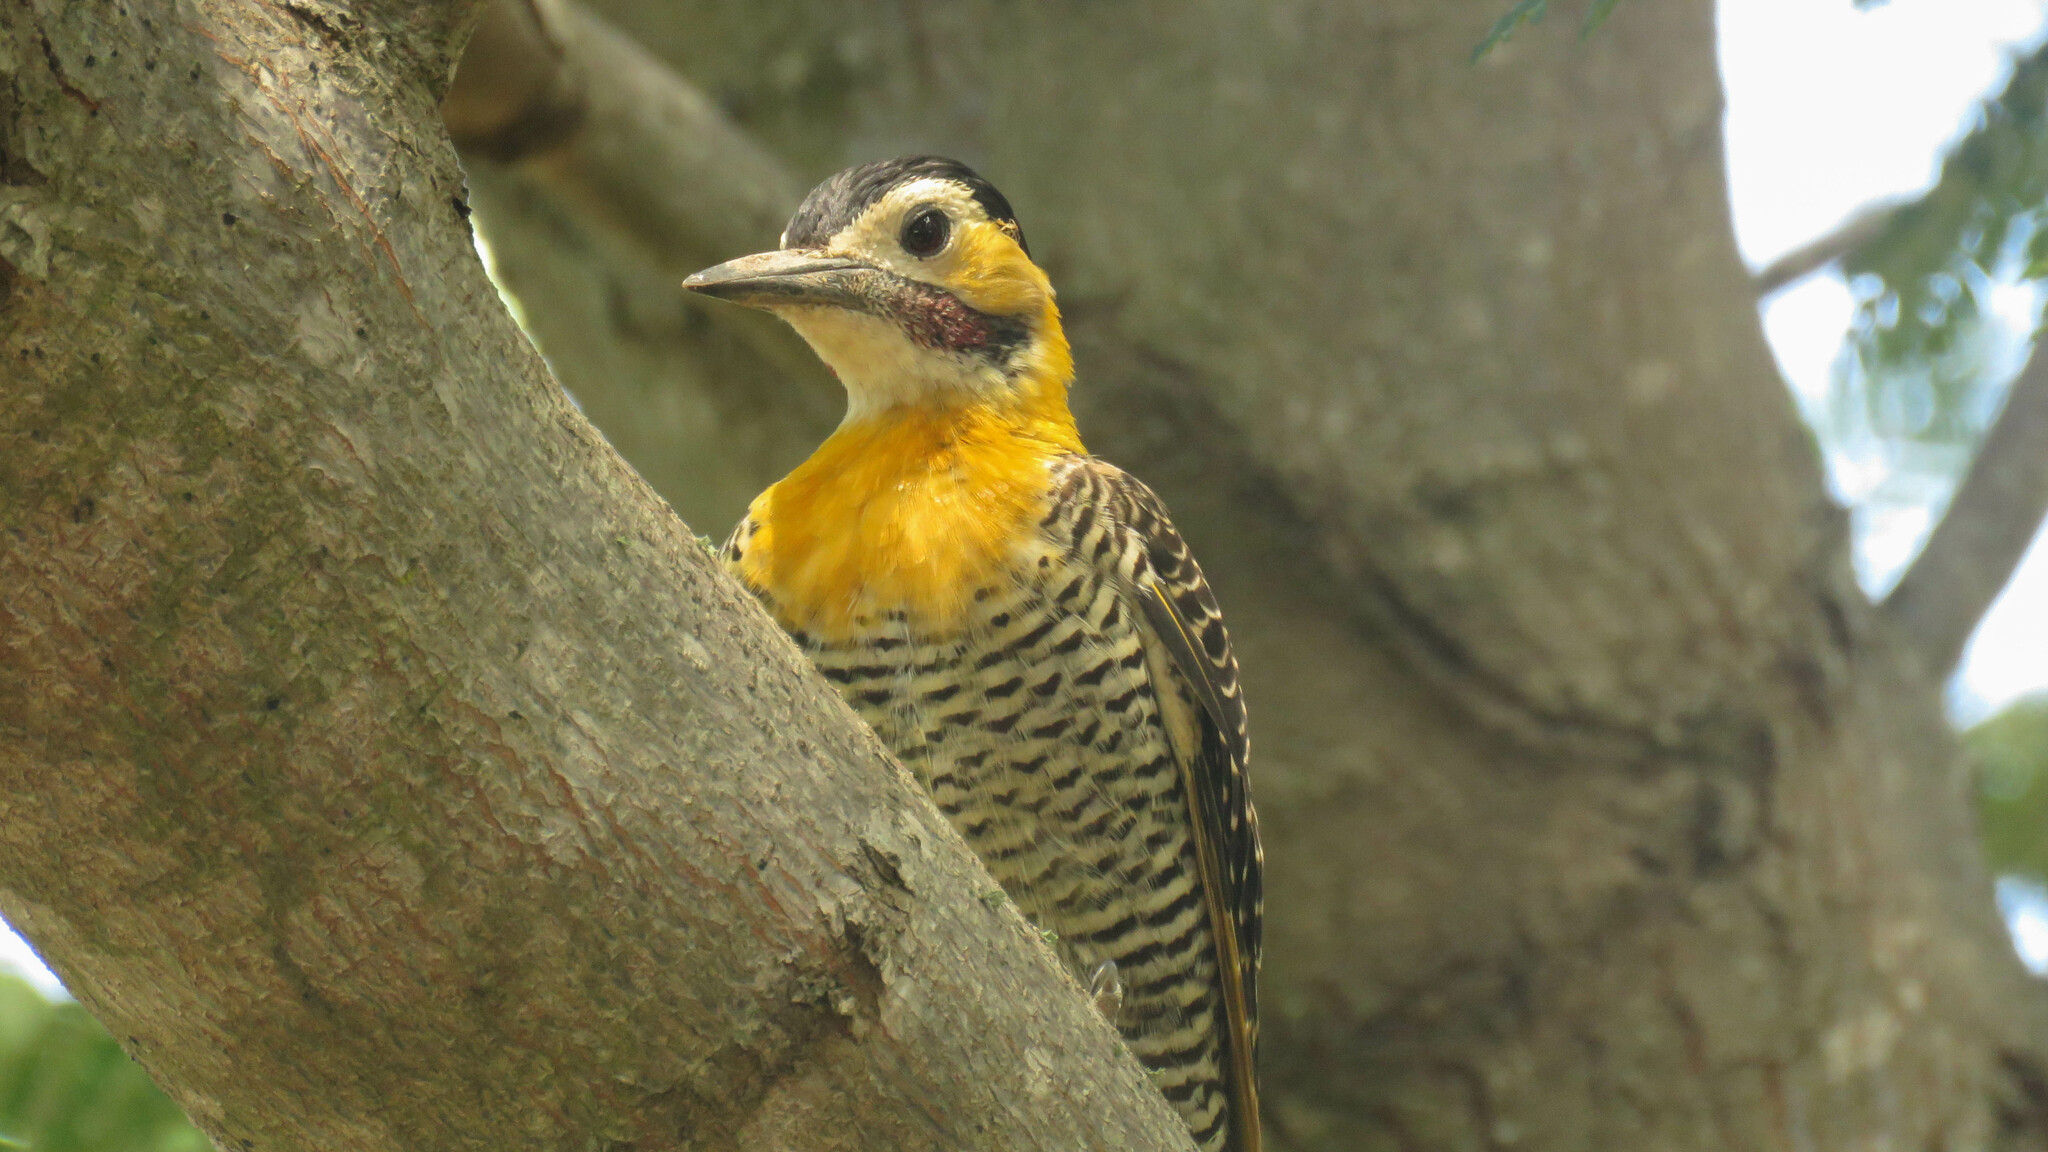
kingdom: Animalia
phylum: Chordata
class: Aves
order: Piciformes
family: Picidae
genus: Colaptes
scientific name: Colaptes campestris
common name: Campo flicker
